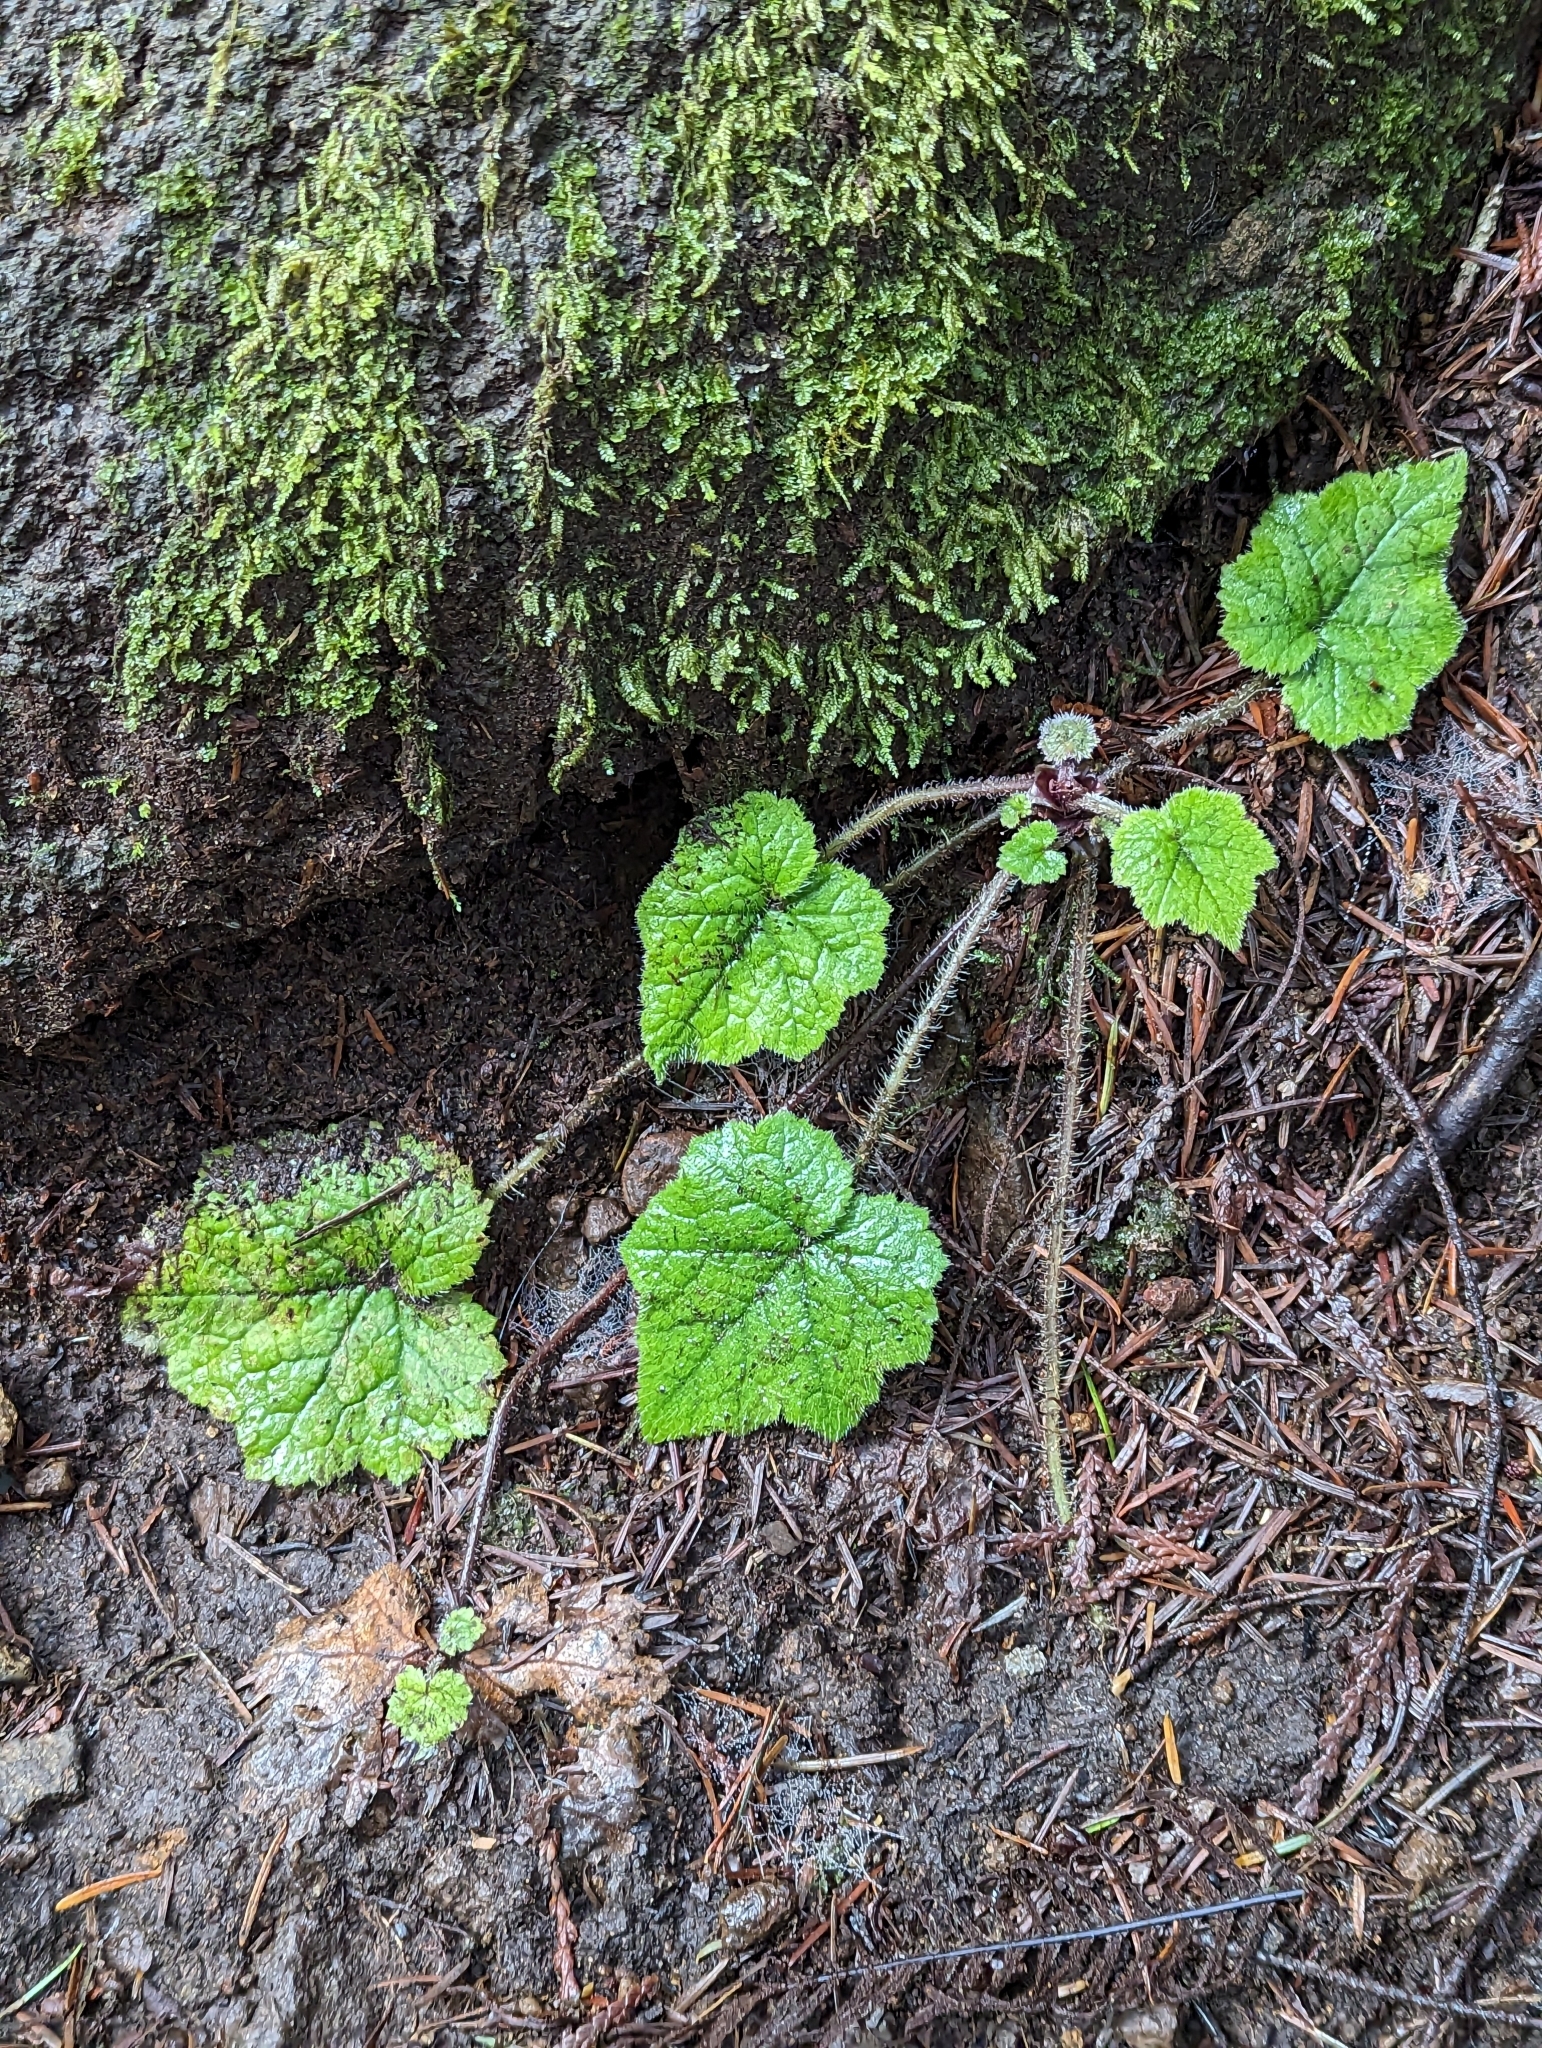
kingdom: Plantae
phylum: Tracheophyta
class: Magnoliopsida
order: Saxifragales
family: Saxifragaceae
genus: Tolmiea
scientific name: Tolmiea menziesii
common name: Pick-a-back-plant
